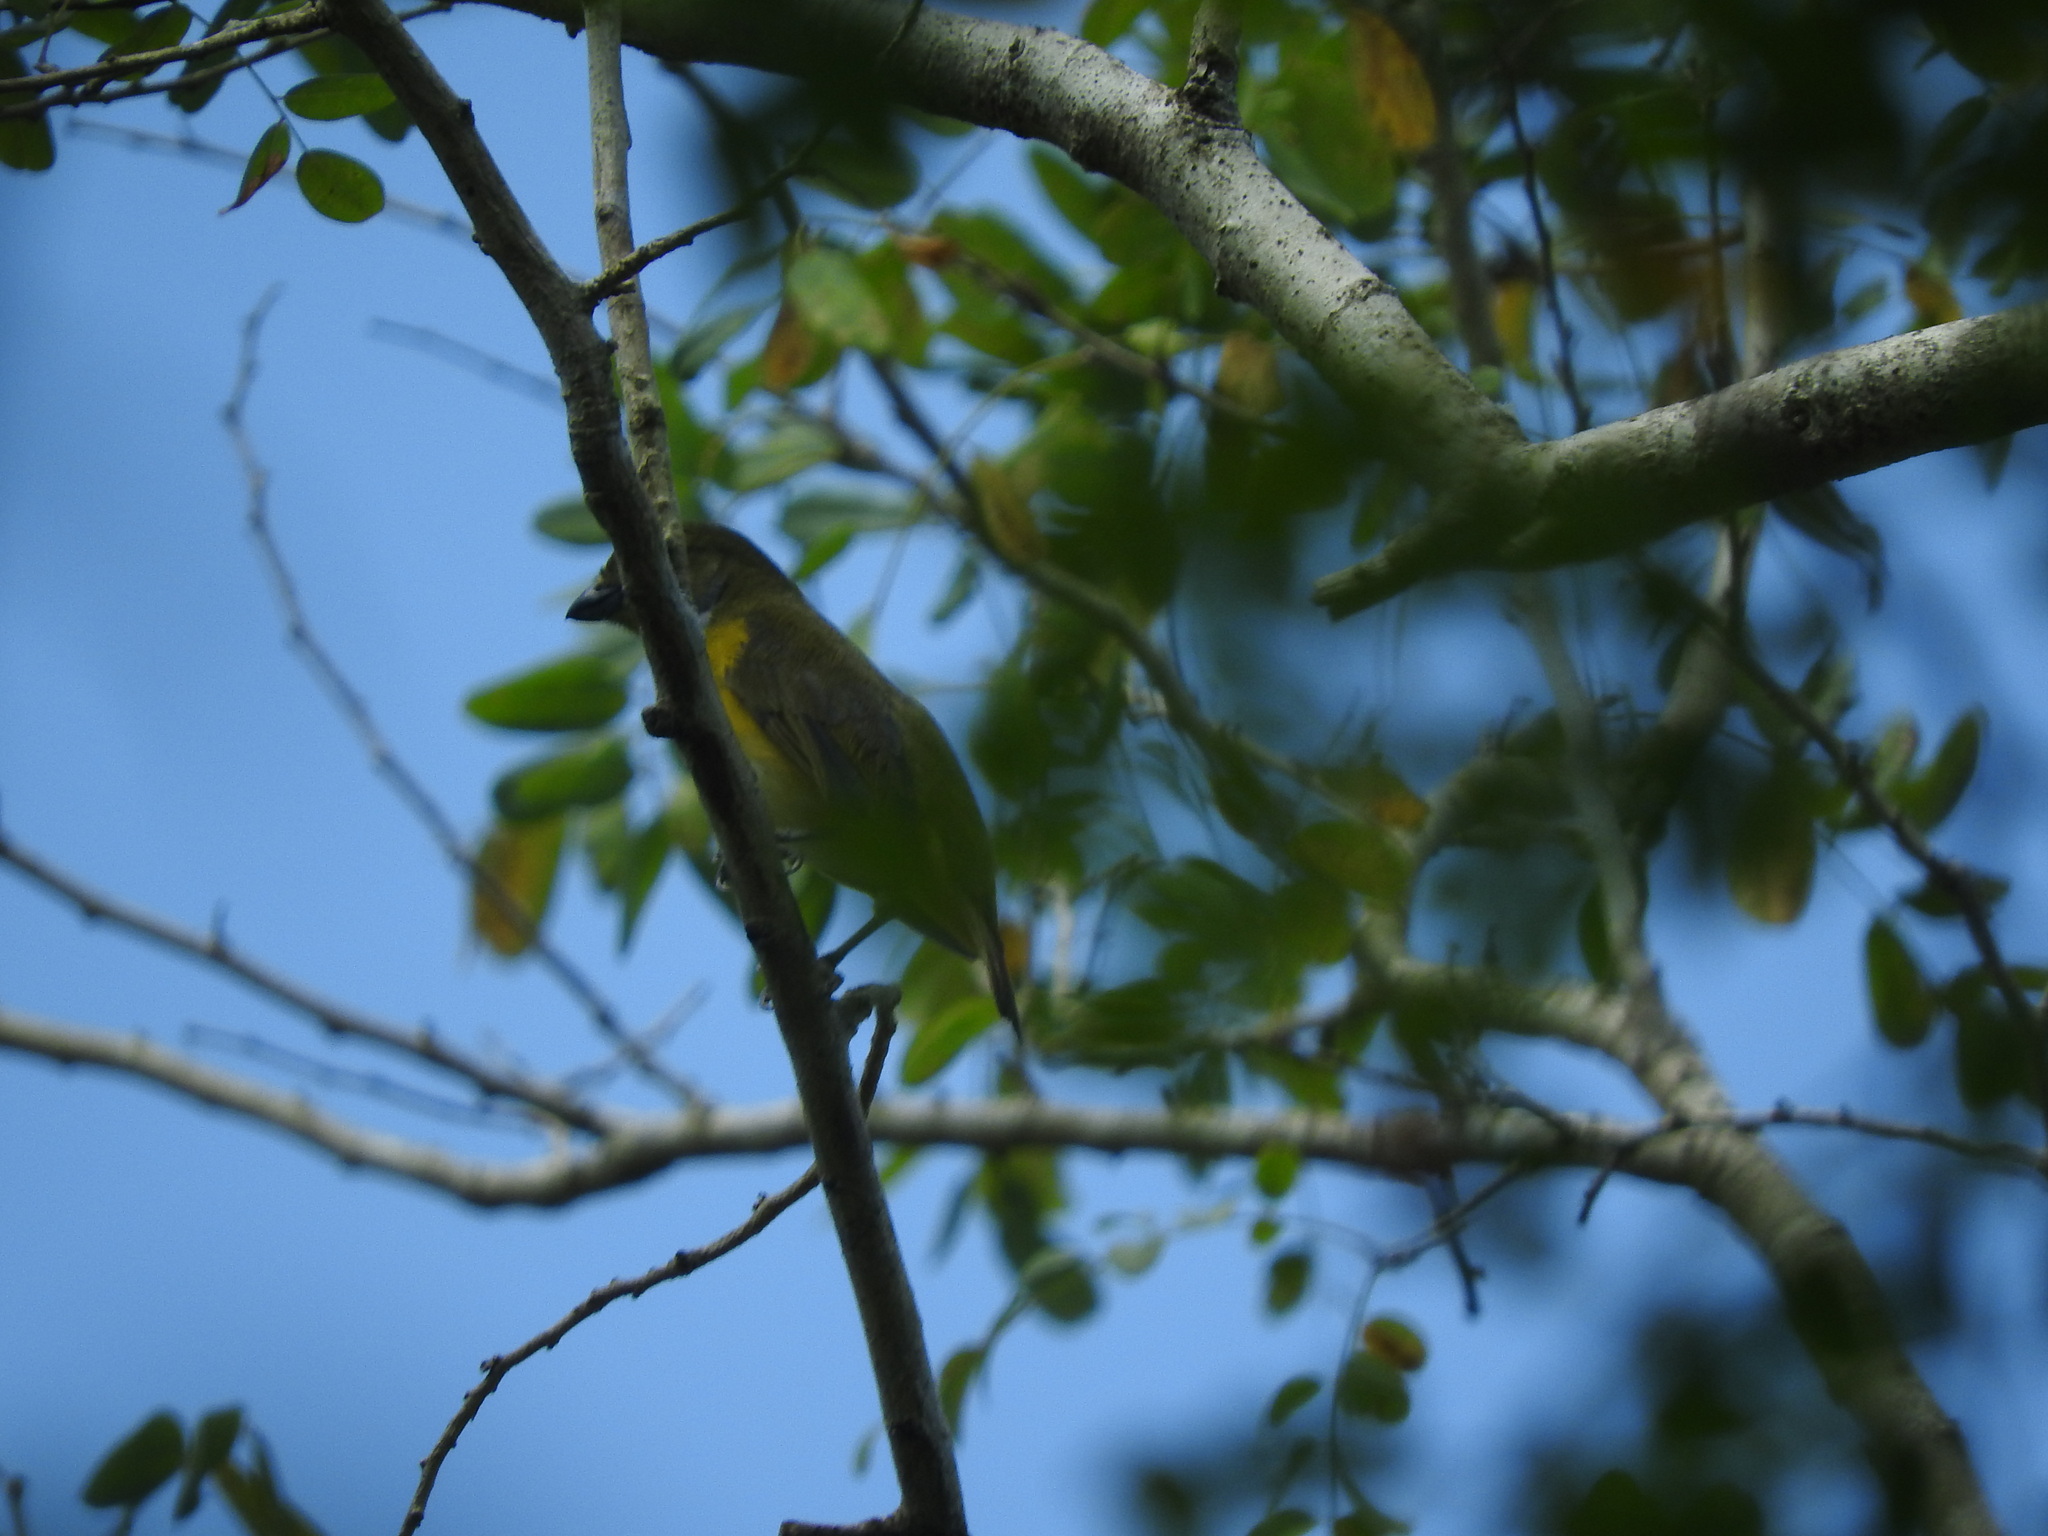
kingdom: Animalia
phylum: Chordata
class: Aves
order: Passeriformes
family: Fringillidae
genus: Euphonia
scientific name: Euphonia hirundinacea
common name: Yellow-throated euphonia
